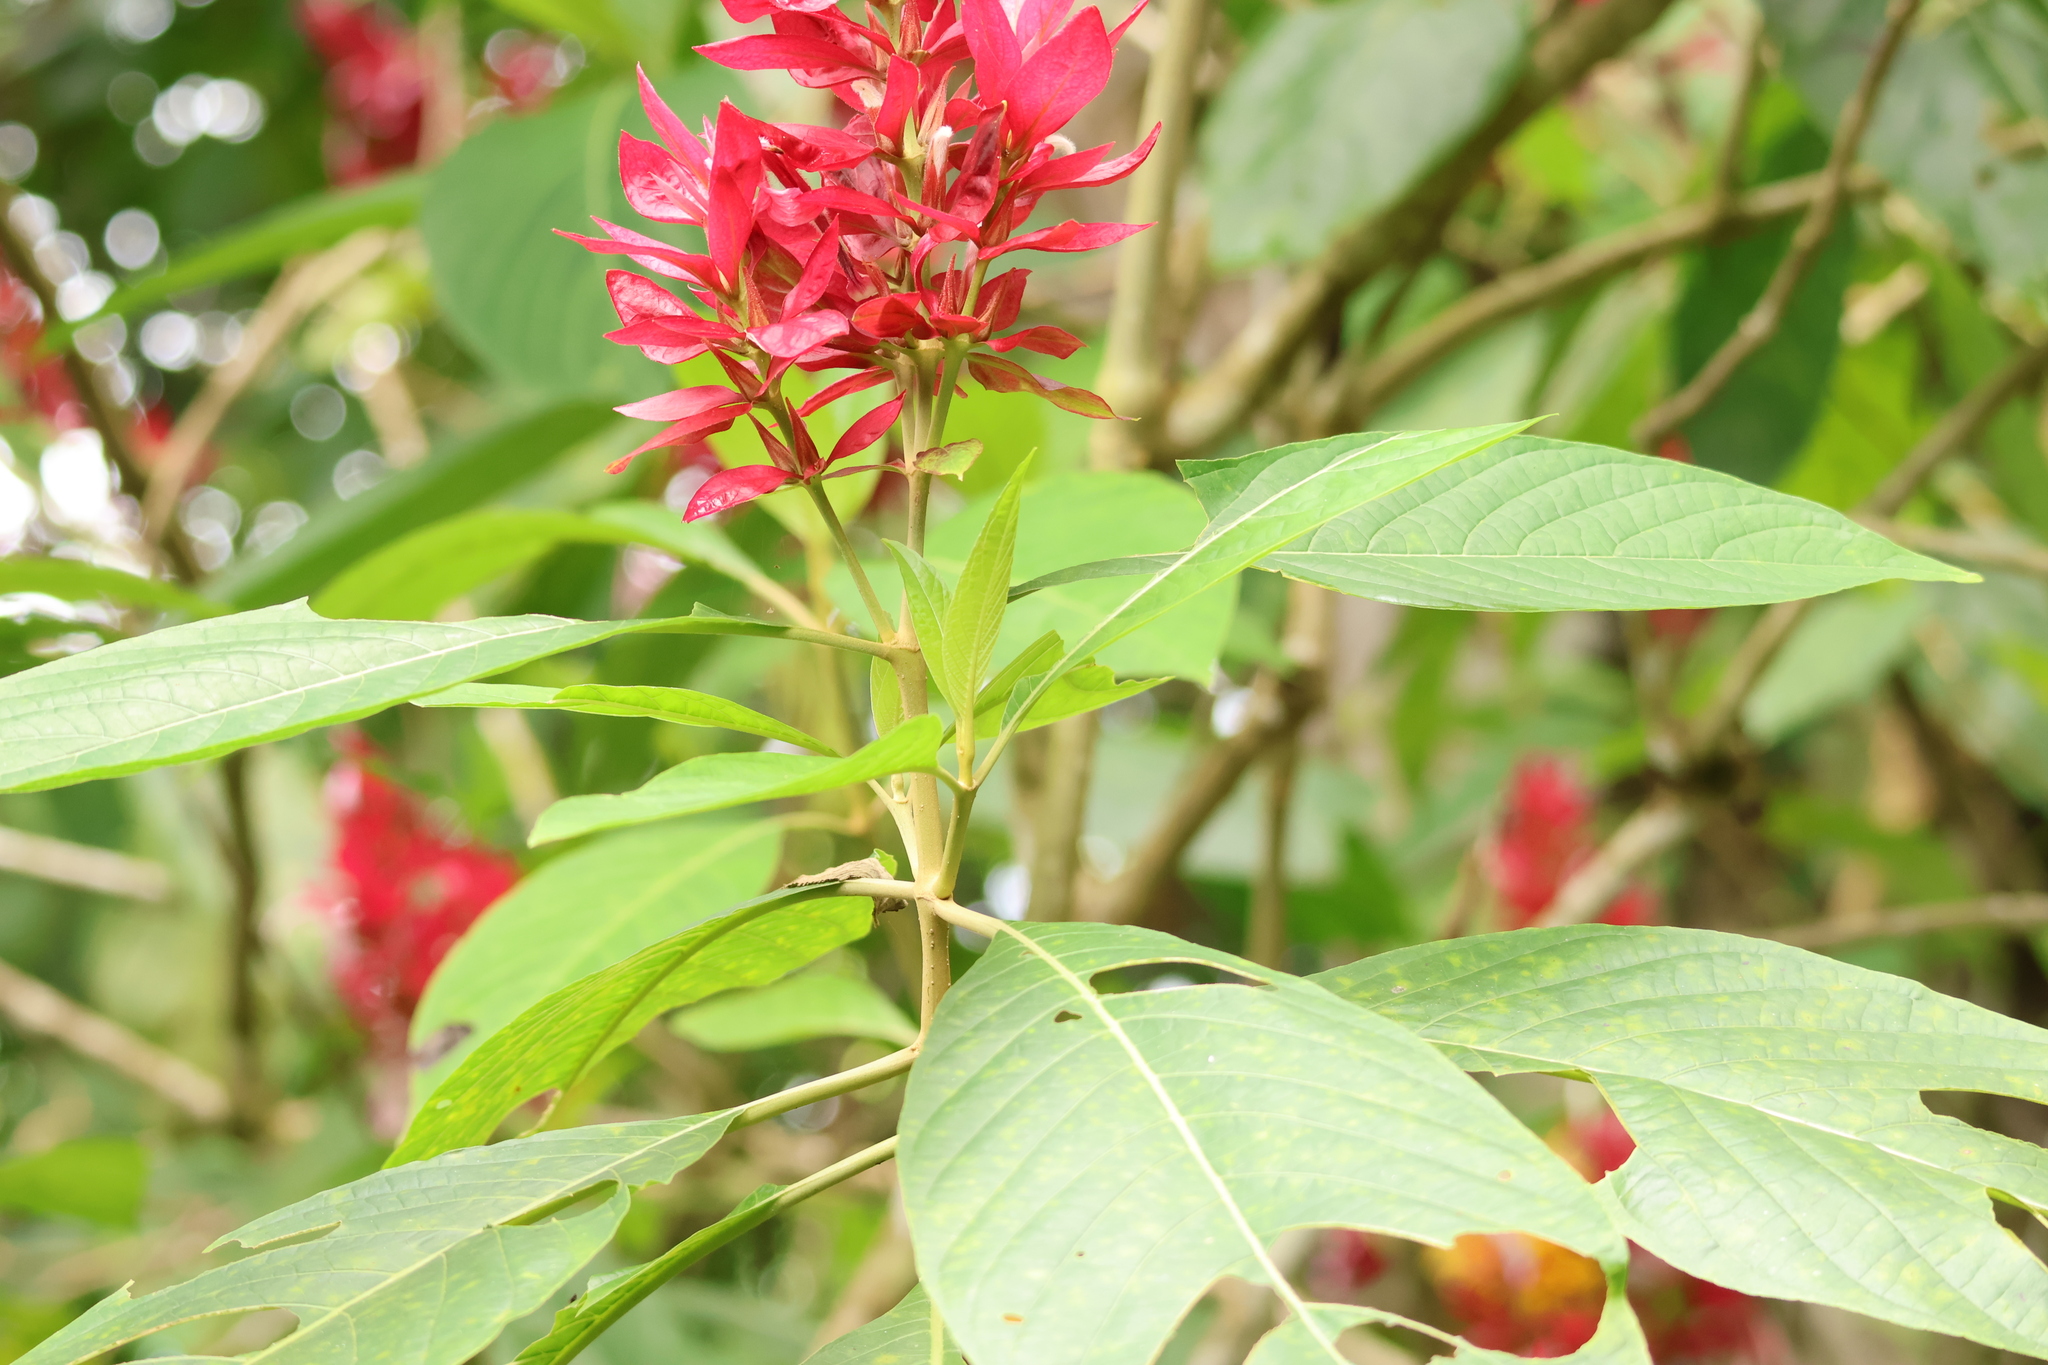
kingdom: Plantae
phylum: Tracheophyta
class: Magnoliopsida
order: Lamiales
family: Acanthaceae
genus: Megaskepasma
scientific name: Megaskepasma erythrochlamys
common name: Brazilian red-cloak
